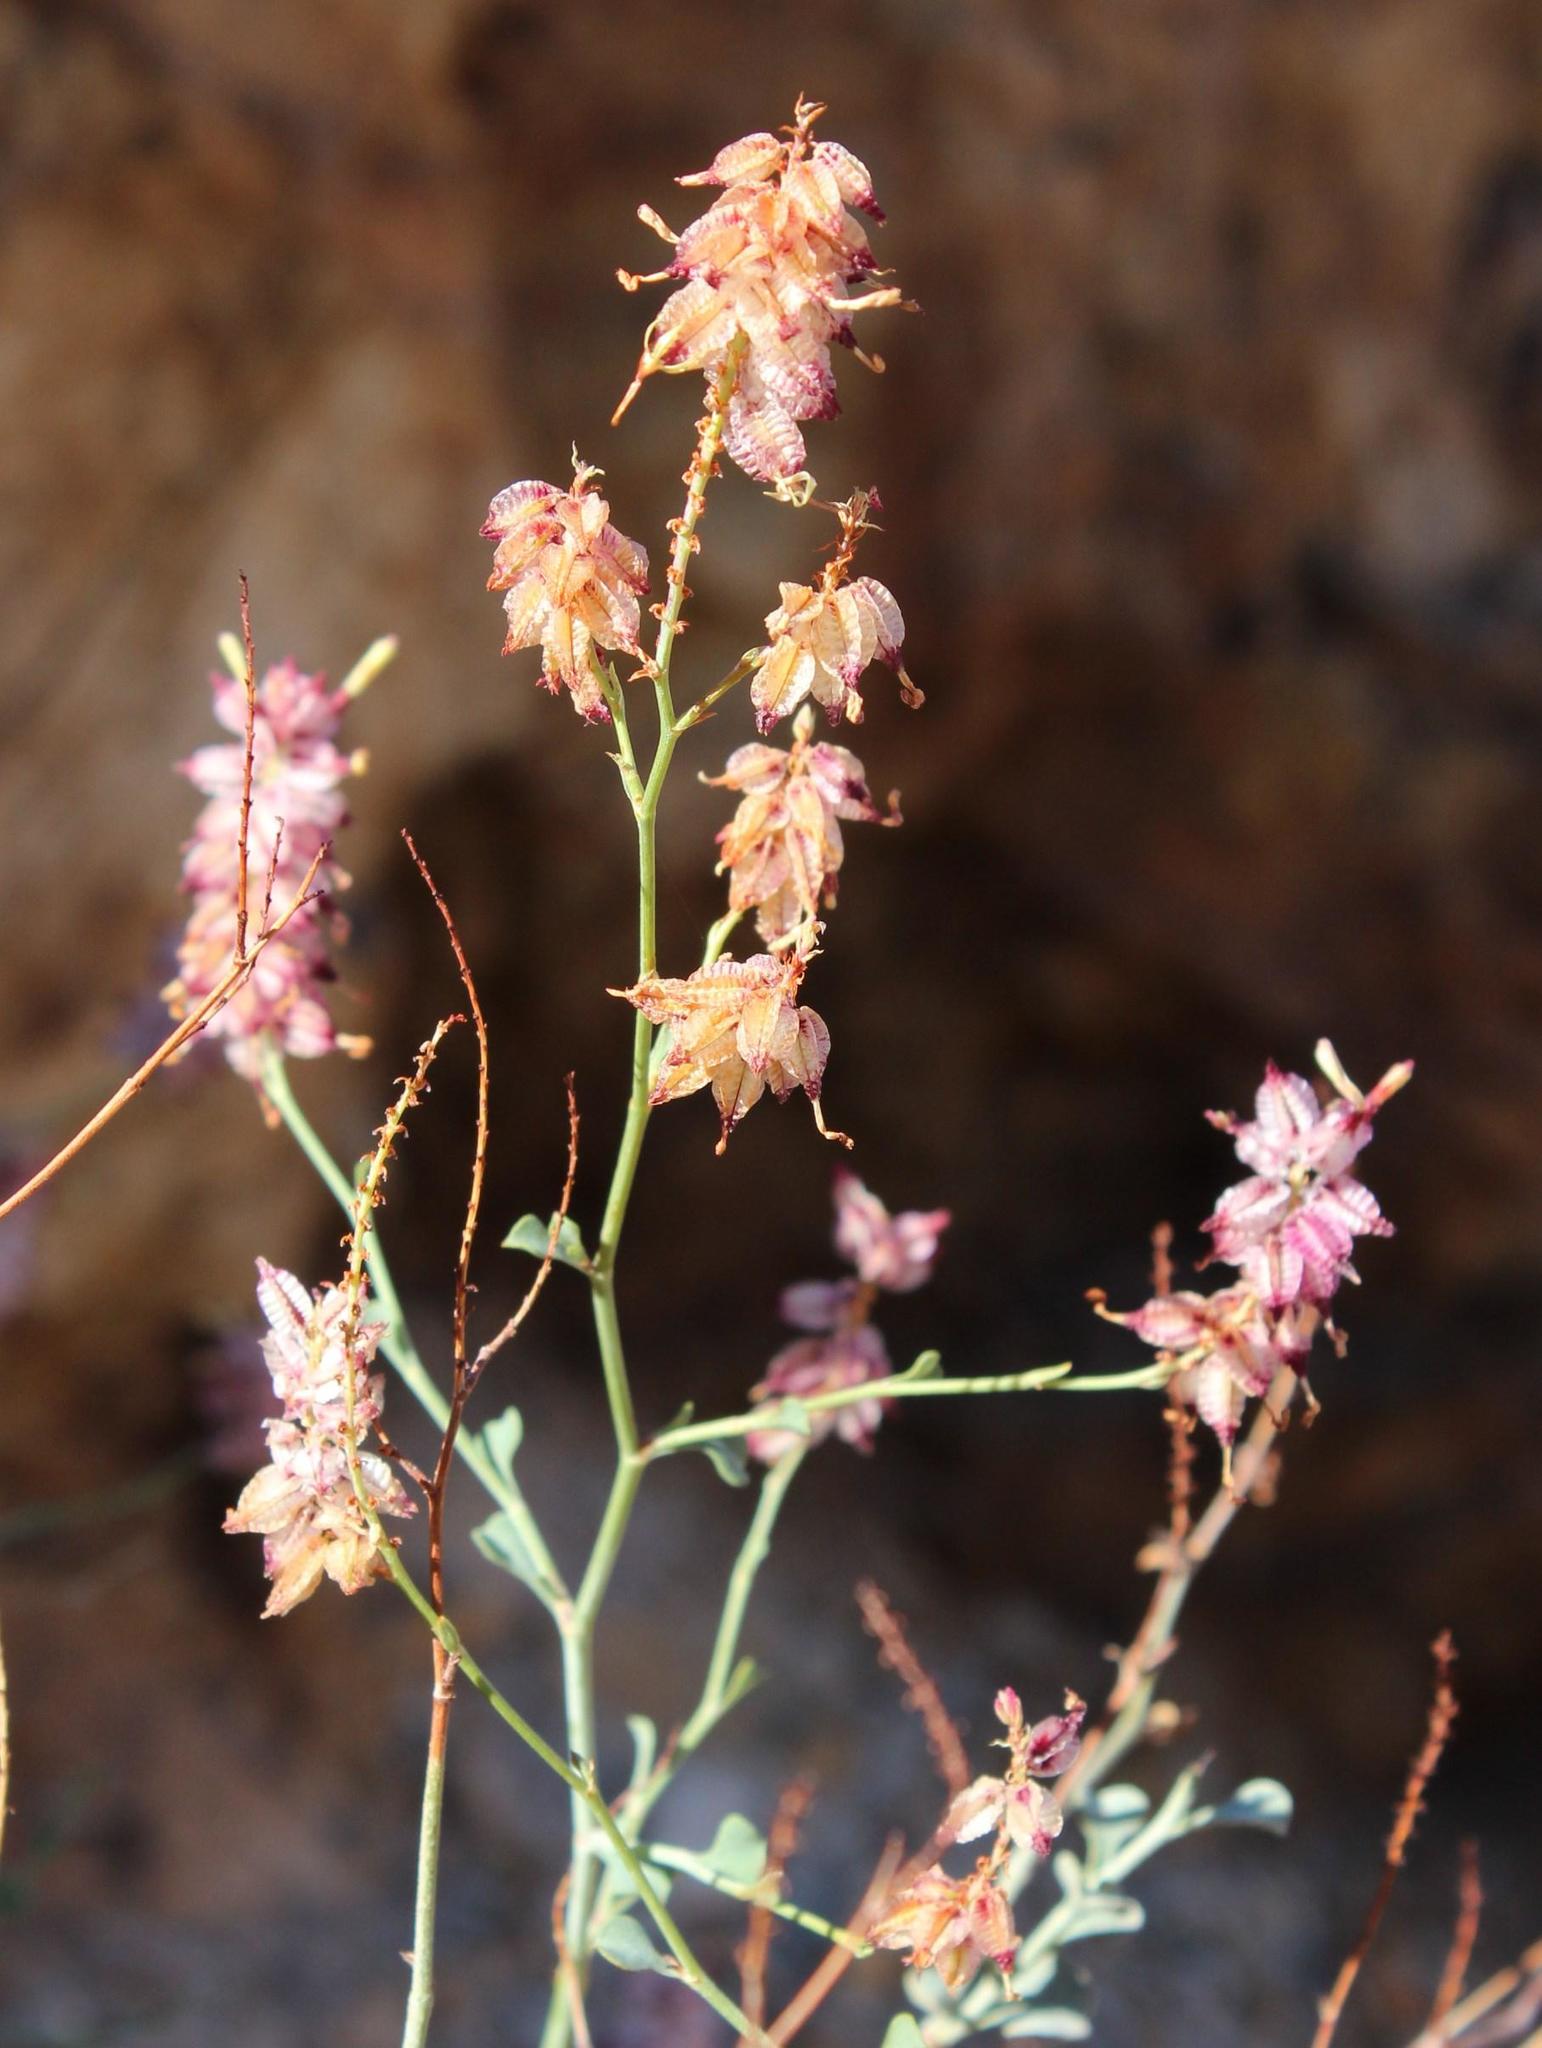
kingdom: Plantae
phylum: Tracheophyta
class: Magnoliopsida
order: Caryophyllales
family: Plumbaginaceae
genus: Dyerophytum
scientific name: Dyerophytum africanum
